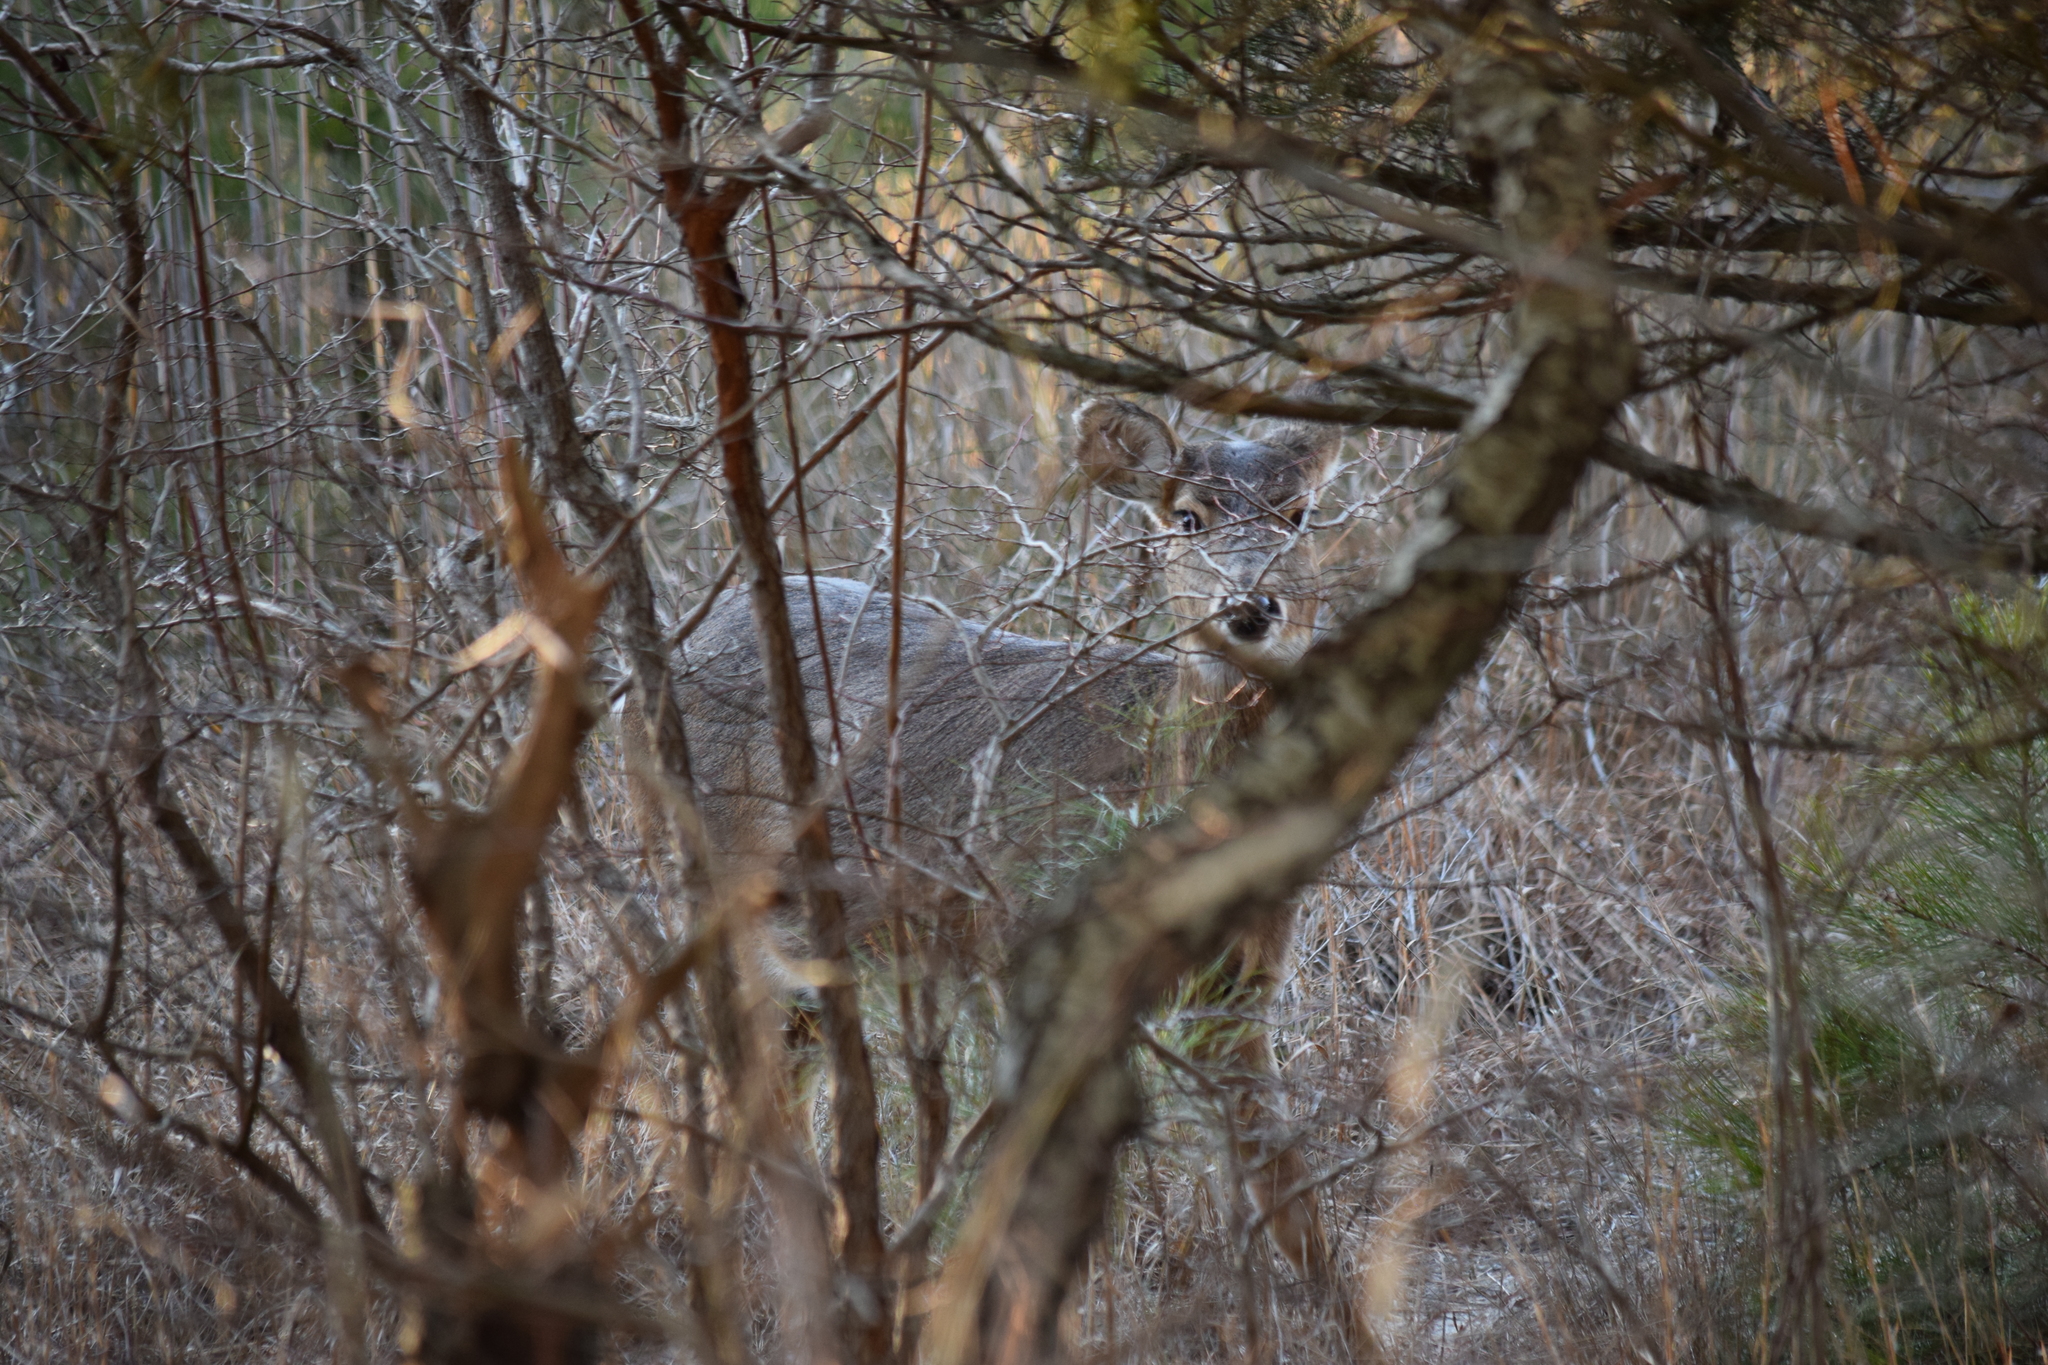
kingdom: Animalia
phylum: Chordata
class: Mammalia
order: Artiodactyla
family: Cervidae
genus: Odocoileus
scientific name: Odocoileus virginianus
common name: White-tailed deer
